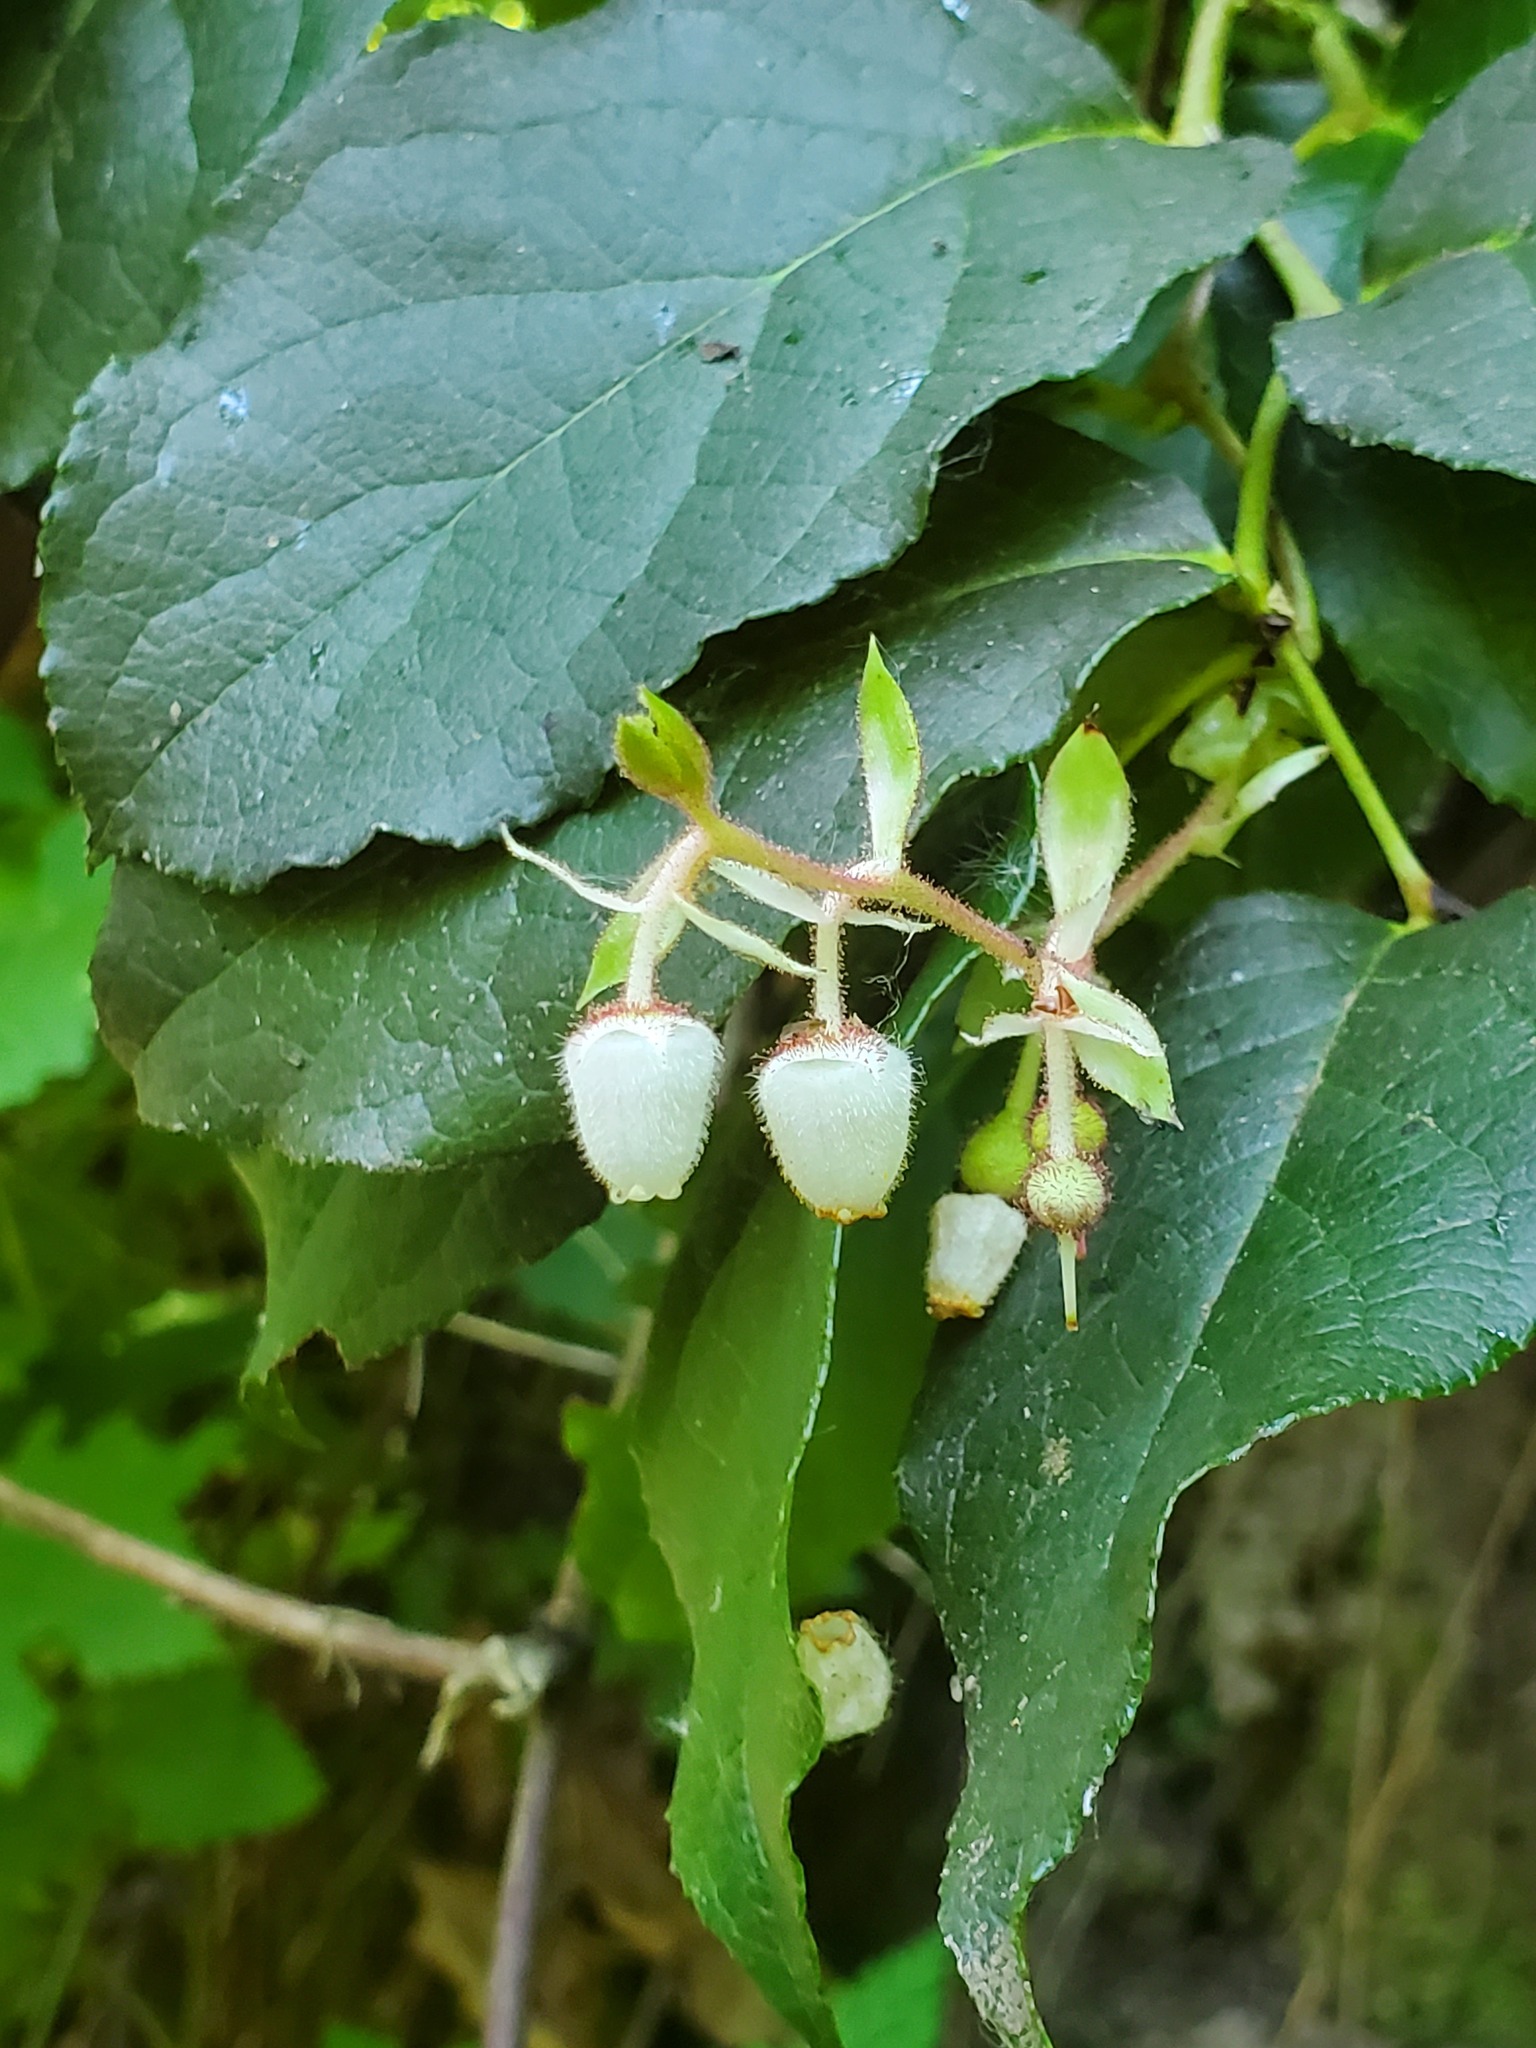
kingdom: Plantae
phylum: Tracheophyta
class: Magnoliopsida
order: Ericales
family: Ericaceae
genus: Gaultheria
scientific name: Gaultheria shallon
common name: Shallon
